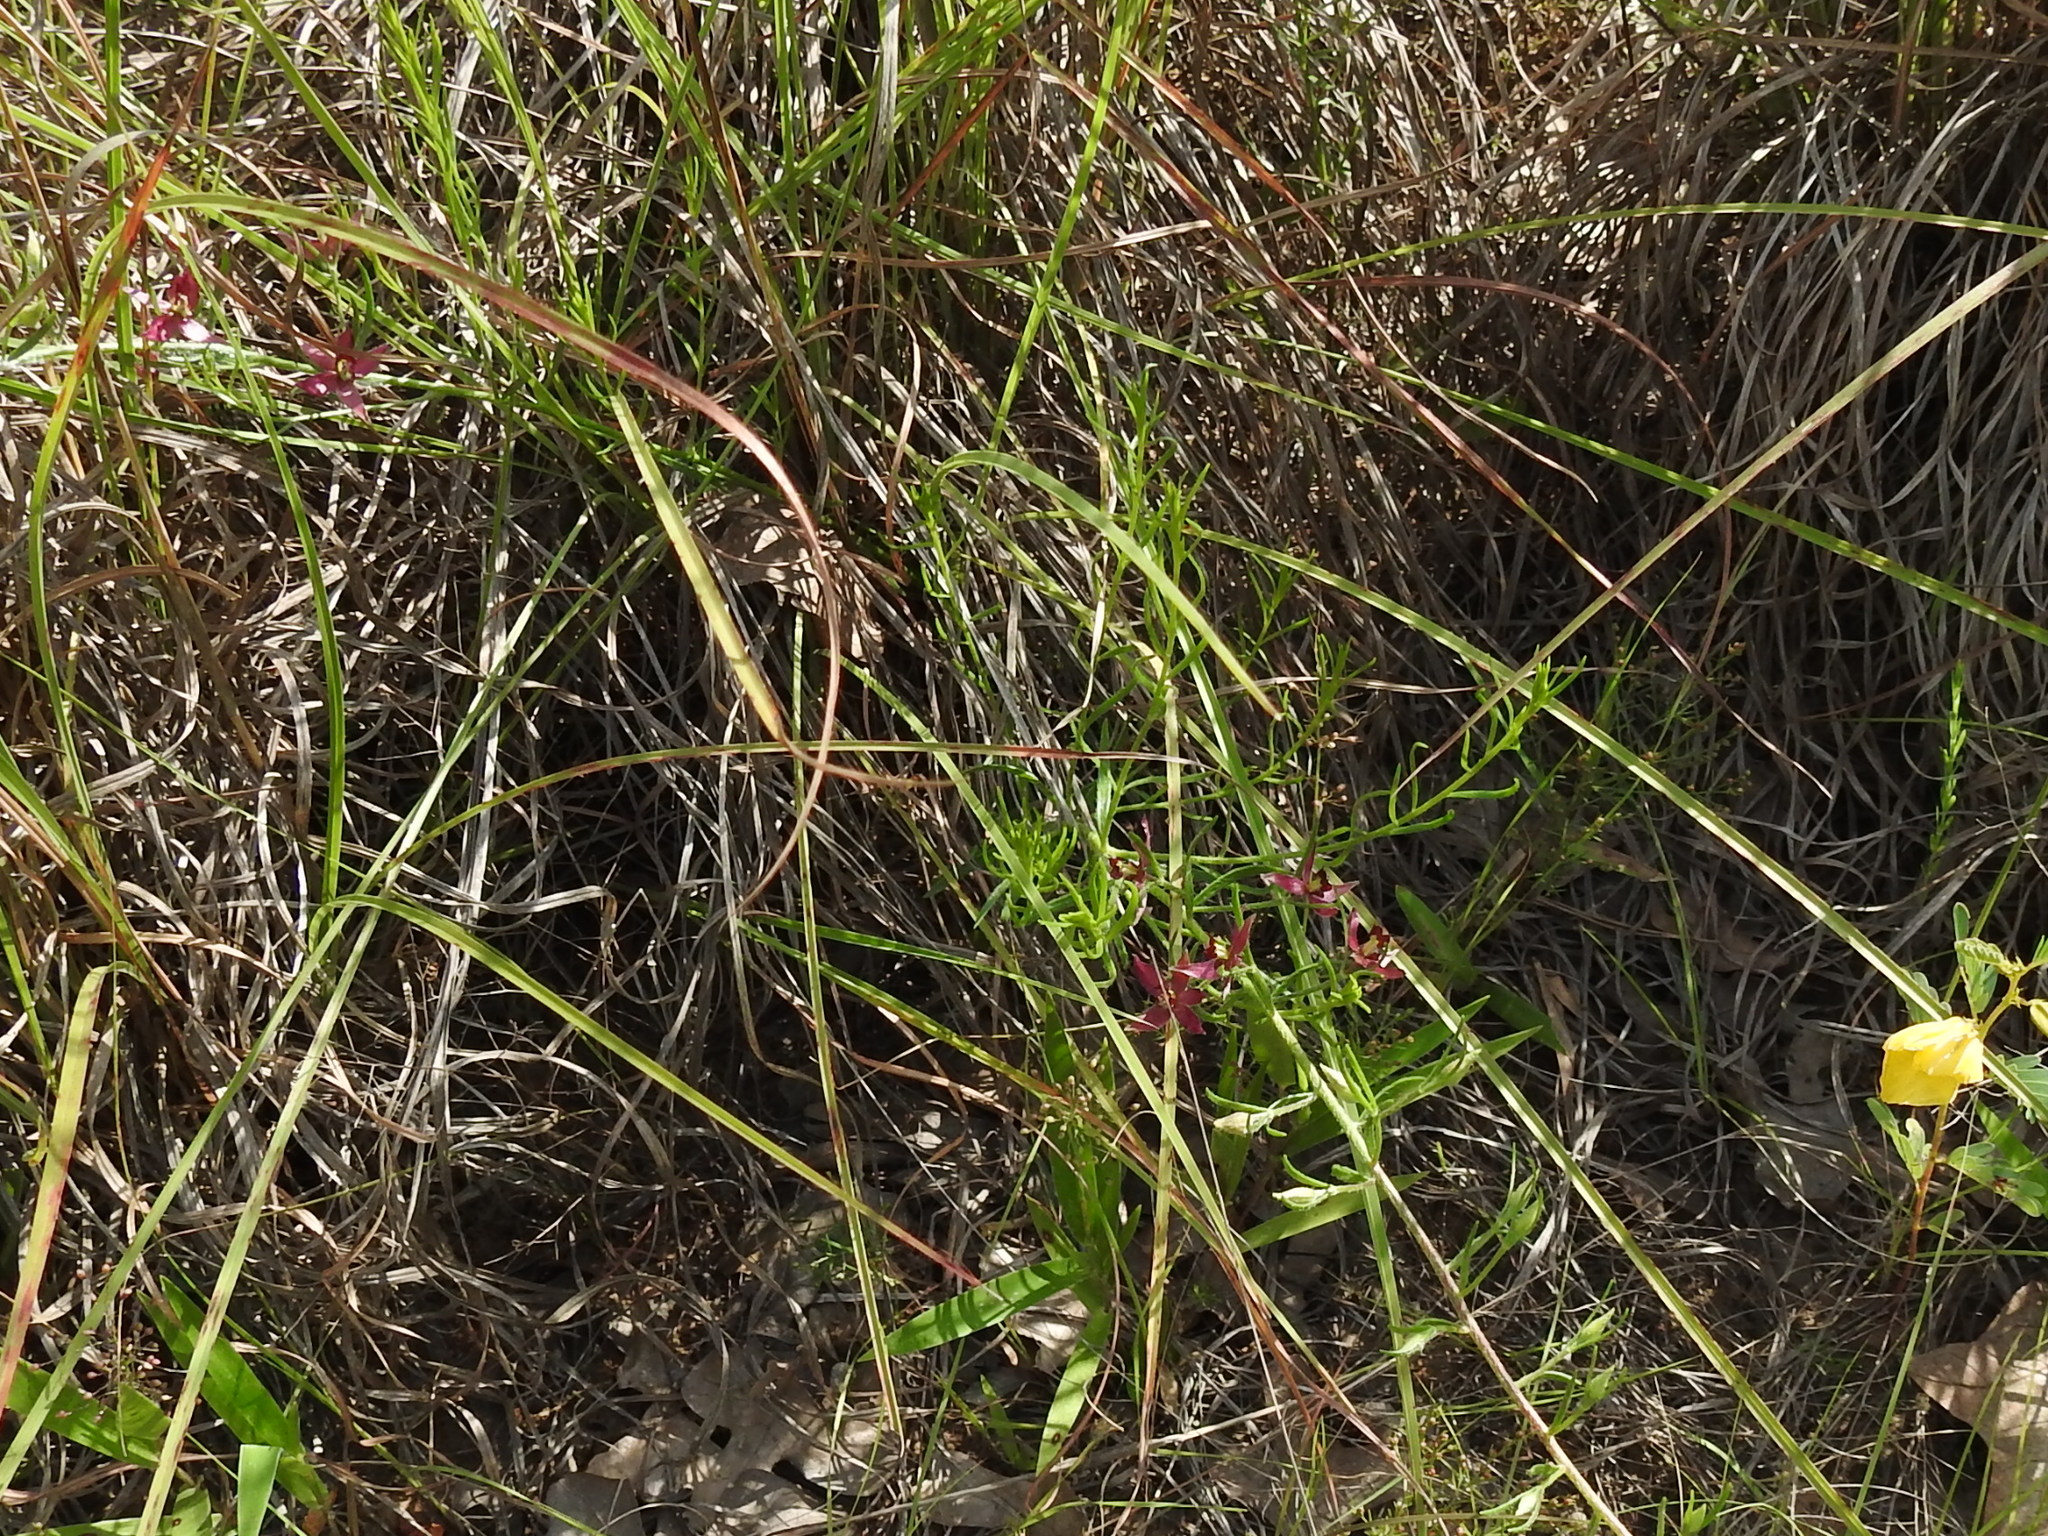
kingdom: Plantae
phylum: Tracheophyta
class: Magnoliopsida
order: Zygophyllales
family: Krameriaceae
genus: Krameria
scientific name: Krameria lanceolata
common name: Ratany
